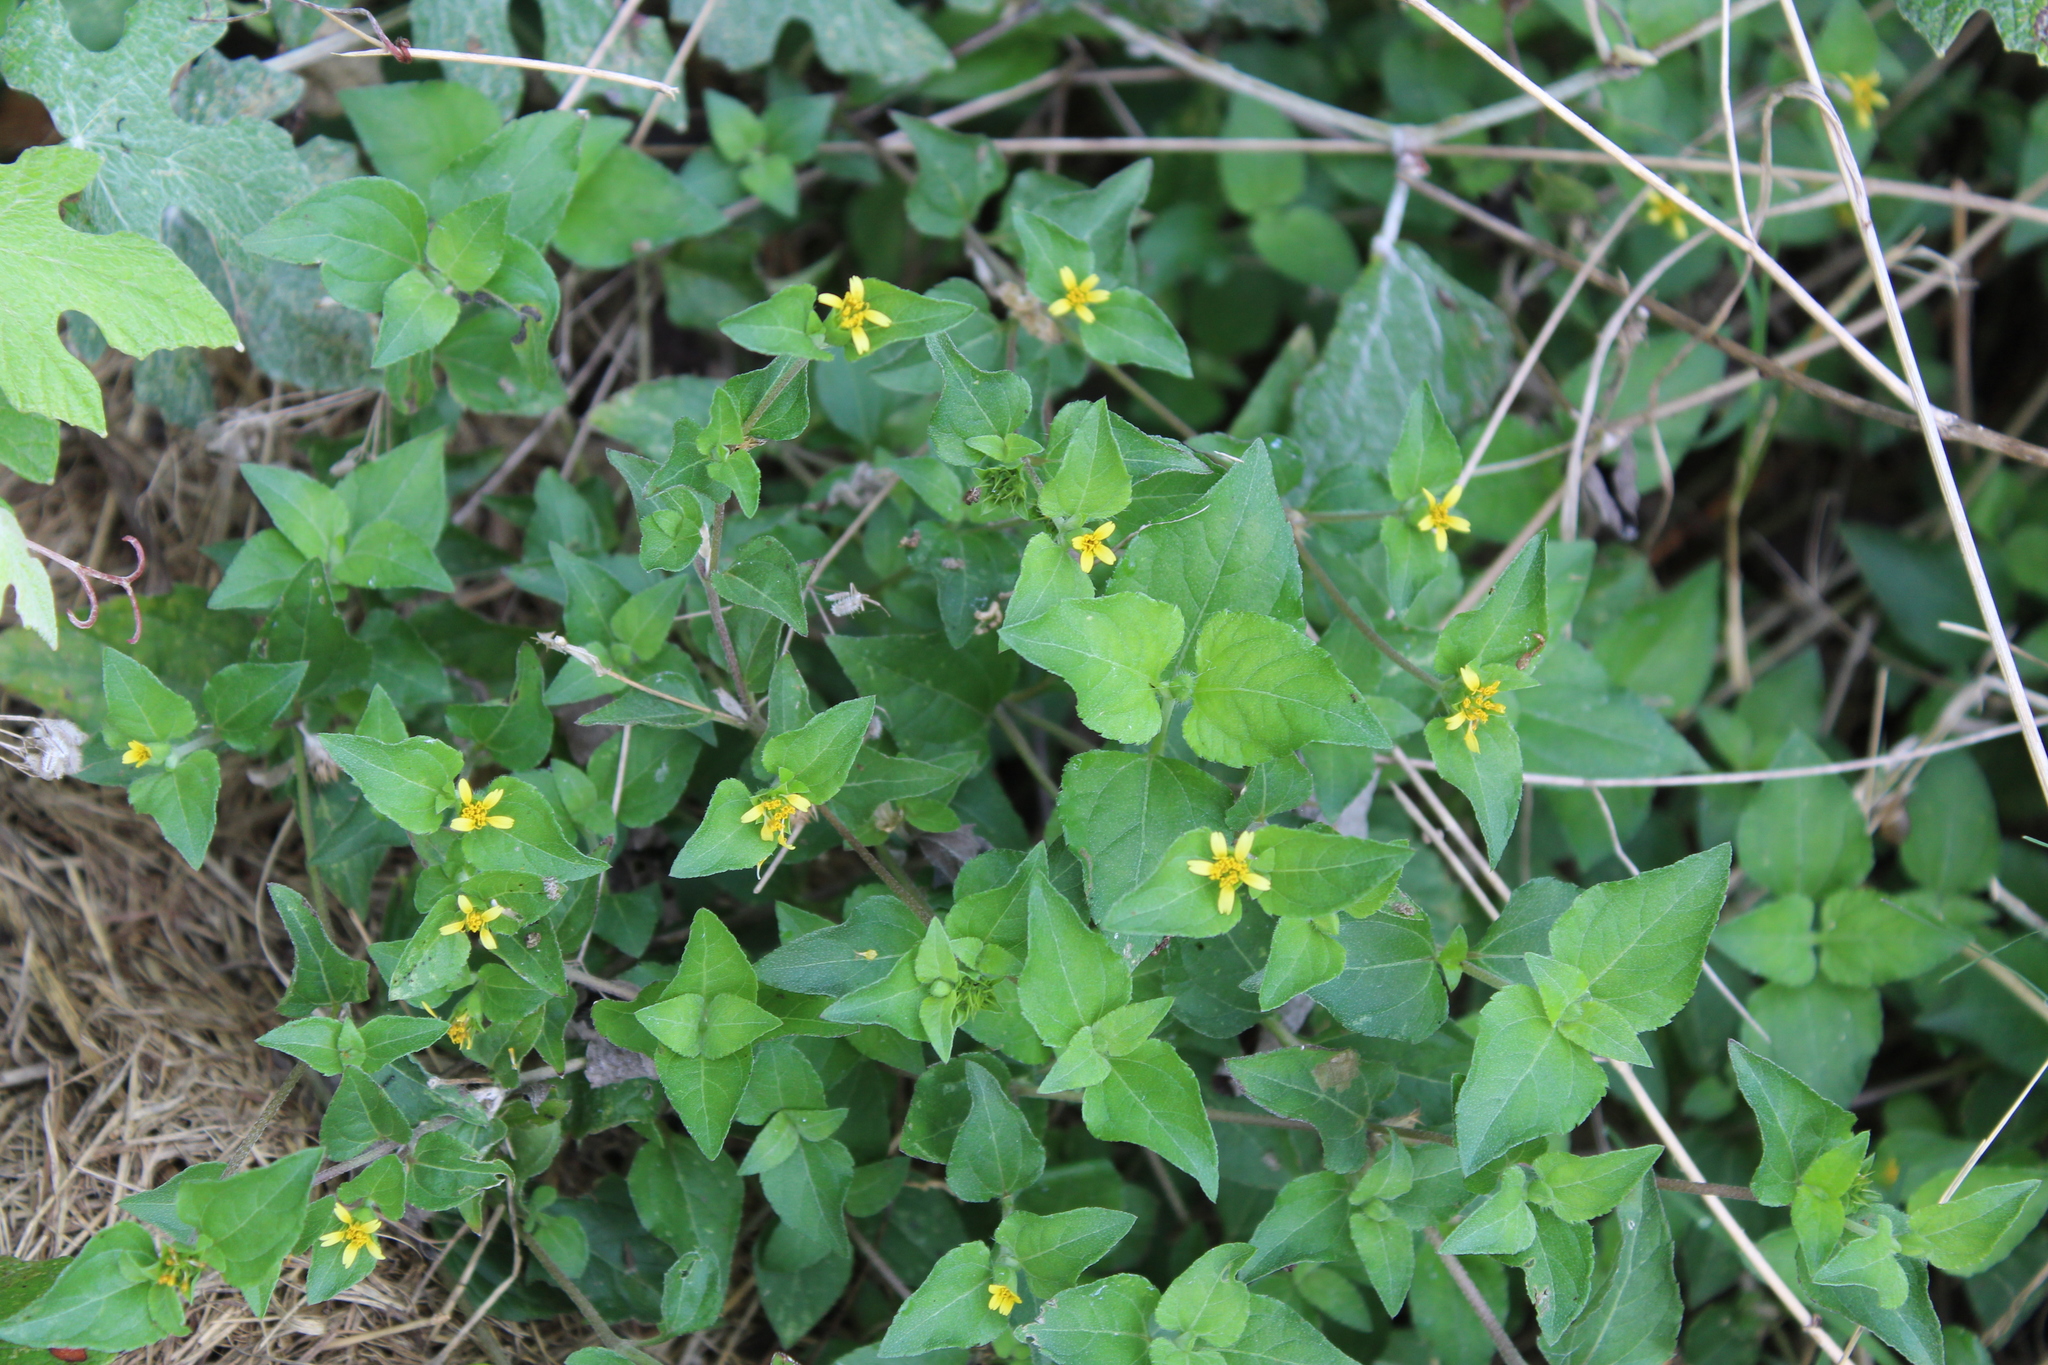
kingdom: Plantae
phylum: Tracheophyta
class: Magnoliopsida
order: Asterales
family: Asteraceae
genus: Calyptocarpus
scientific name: Calyptocarpus vialis
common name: Straggler daisy
